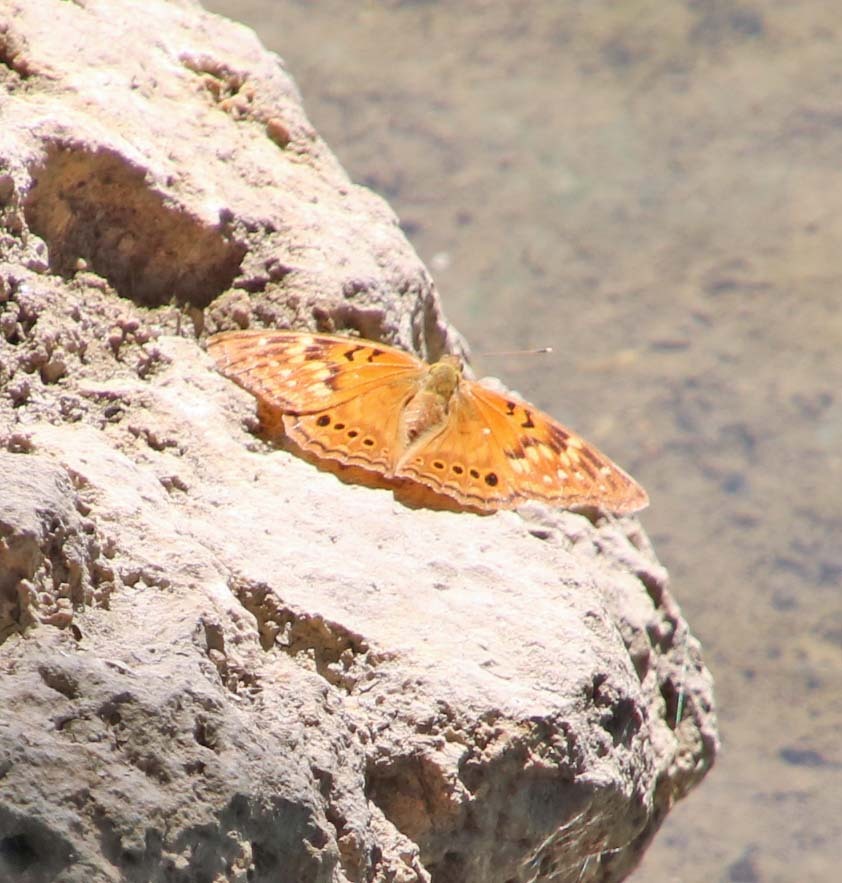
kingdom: Animalia
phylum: Arthropoda
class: Insecta
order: Lepidoptera
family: Nymphalidae
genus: Asterocampa
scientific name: Asterocampa clyton
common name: Tawny emperor
